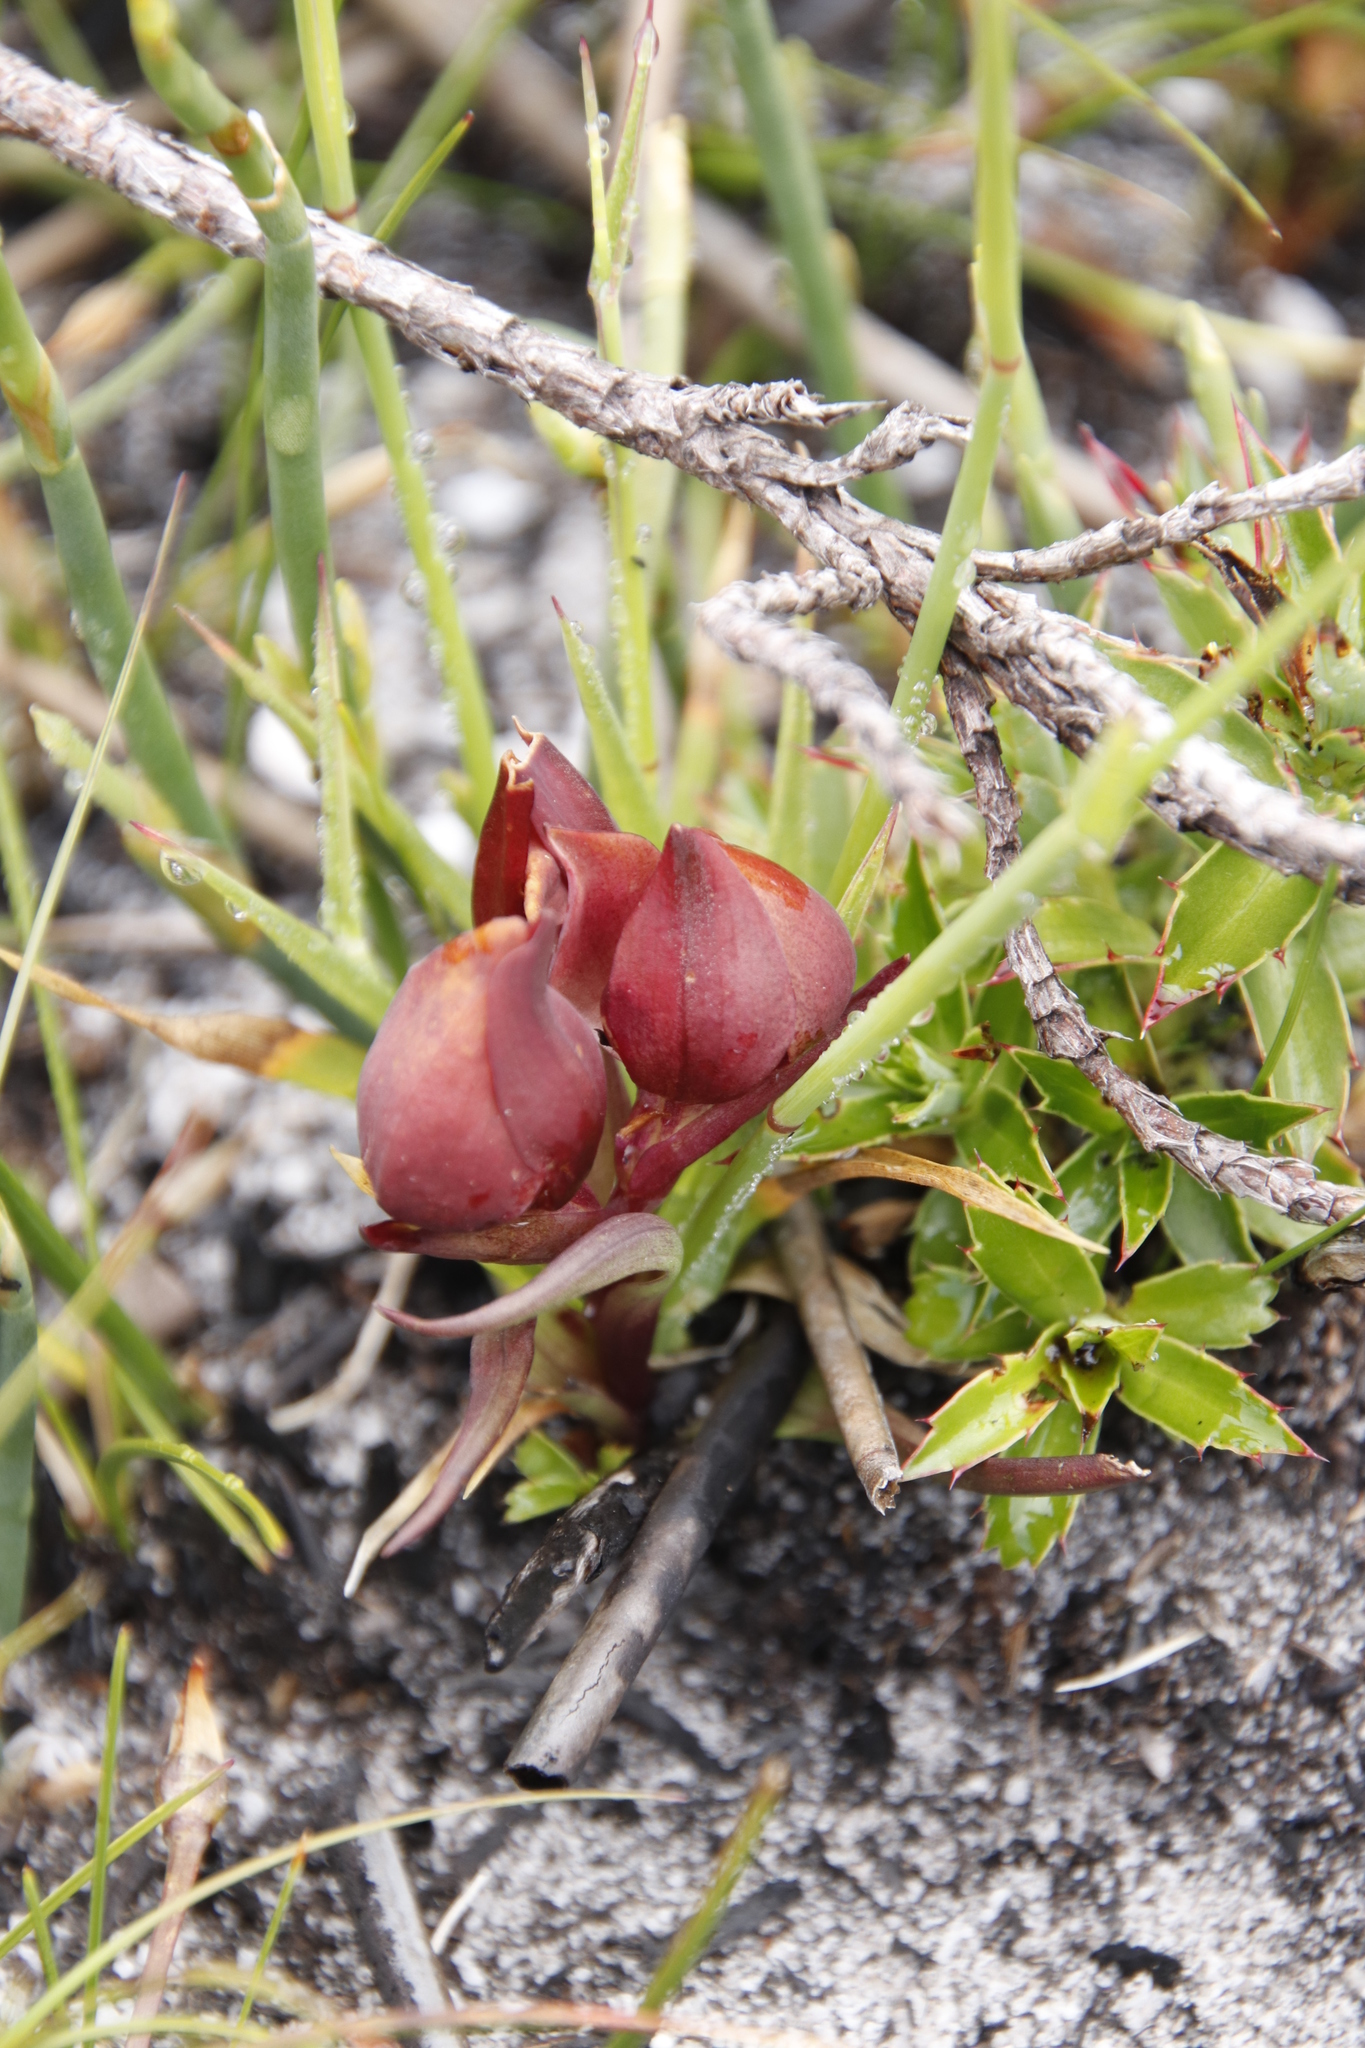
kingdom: Plantae
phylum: Tracheophyta
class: Liliopsida
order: Asparagales
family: Orchidaceae
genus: Disa
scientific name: Disa bodkinii
